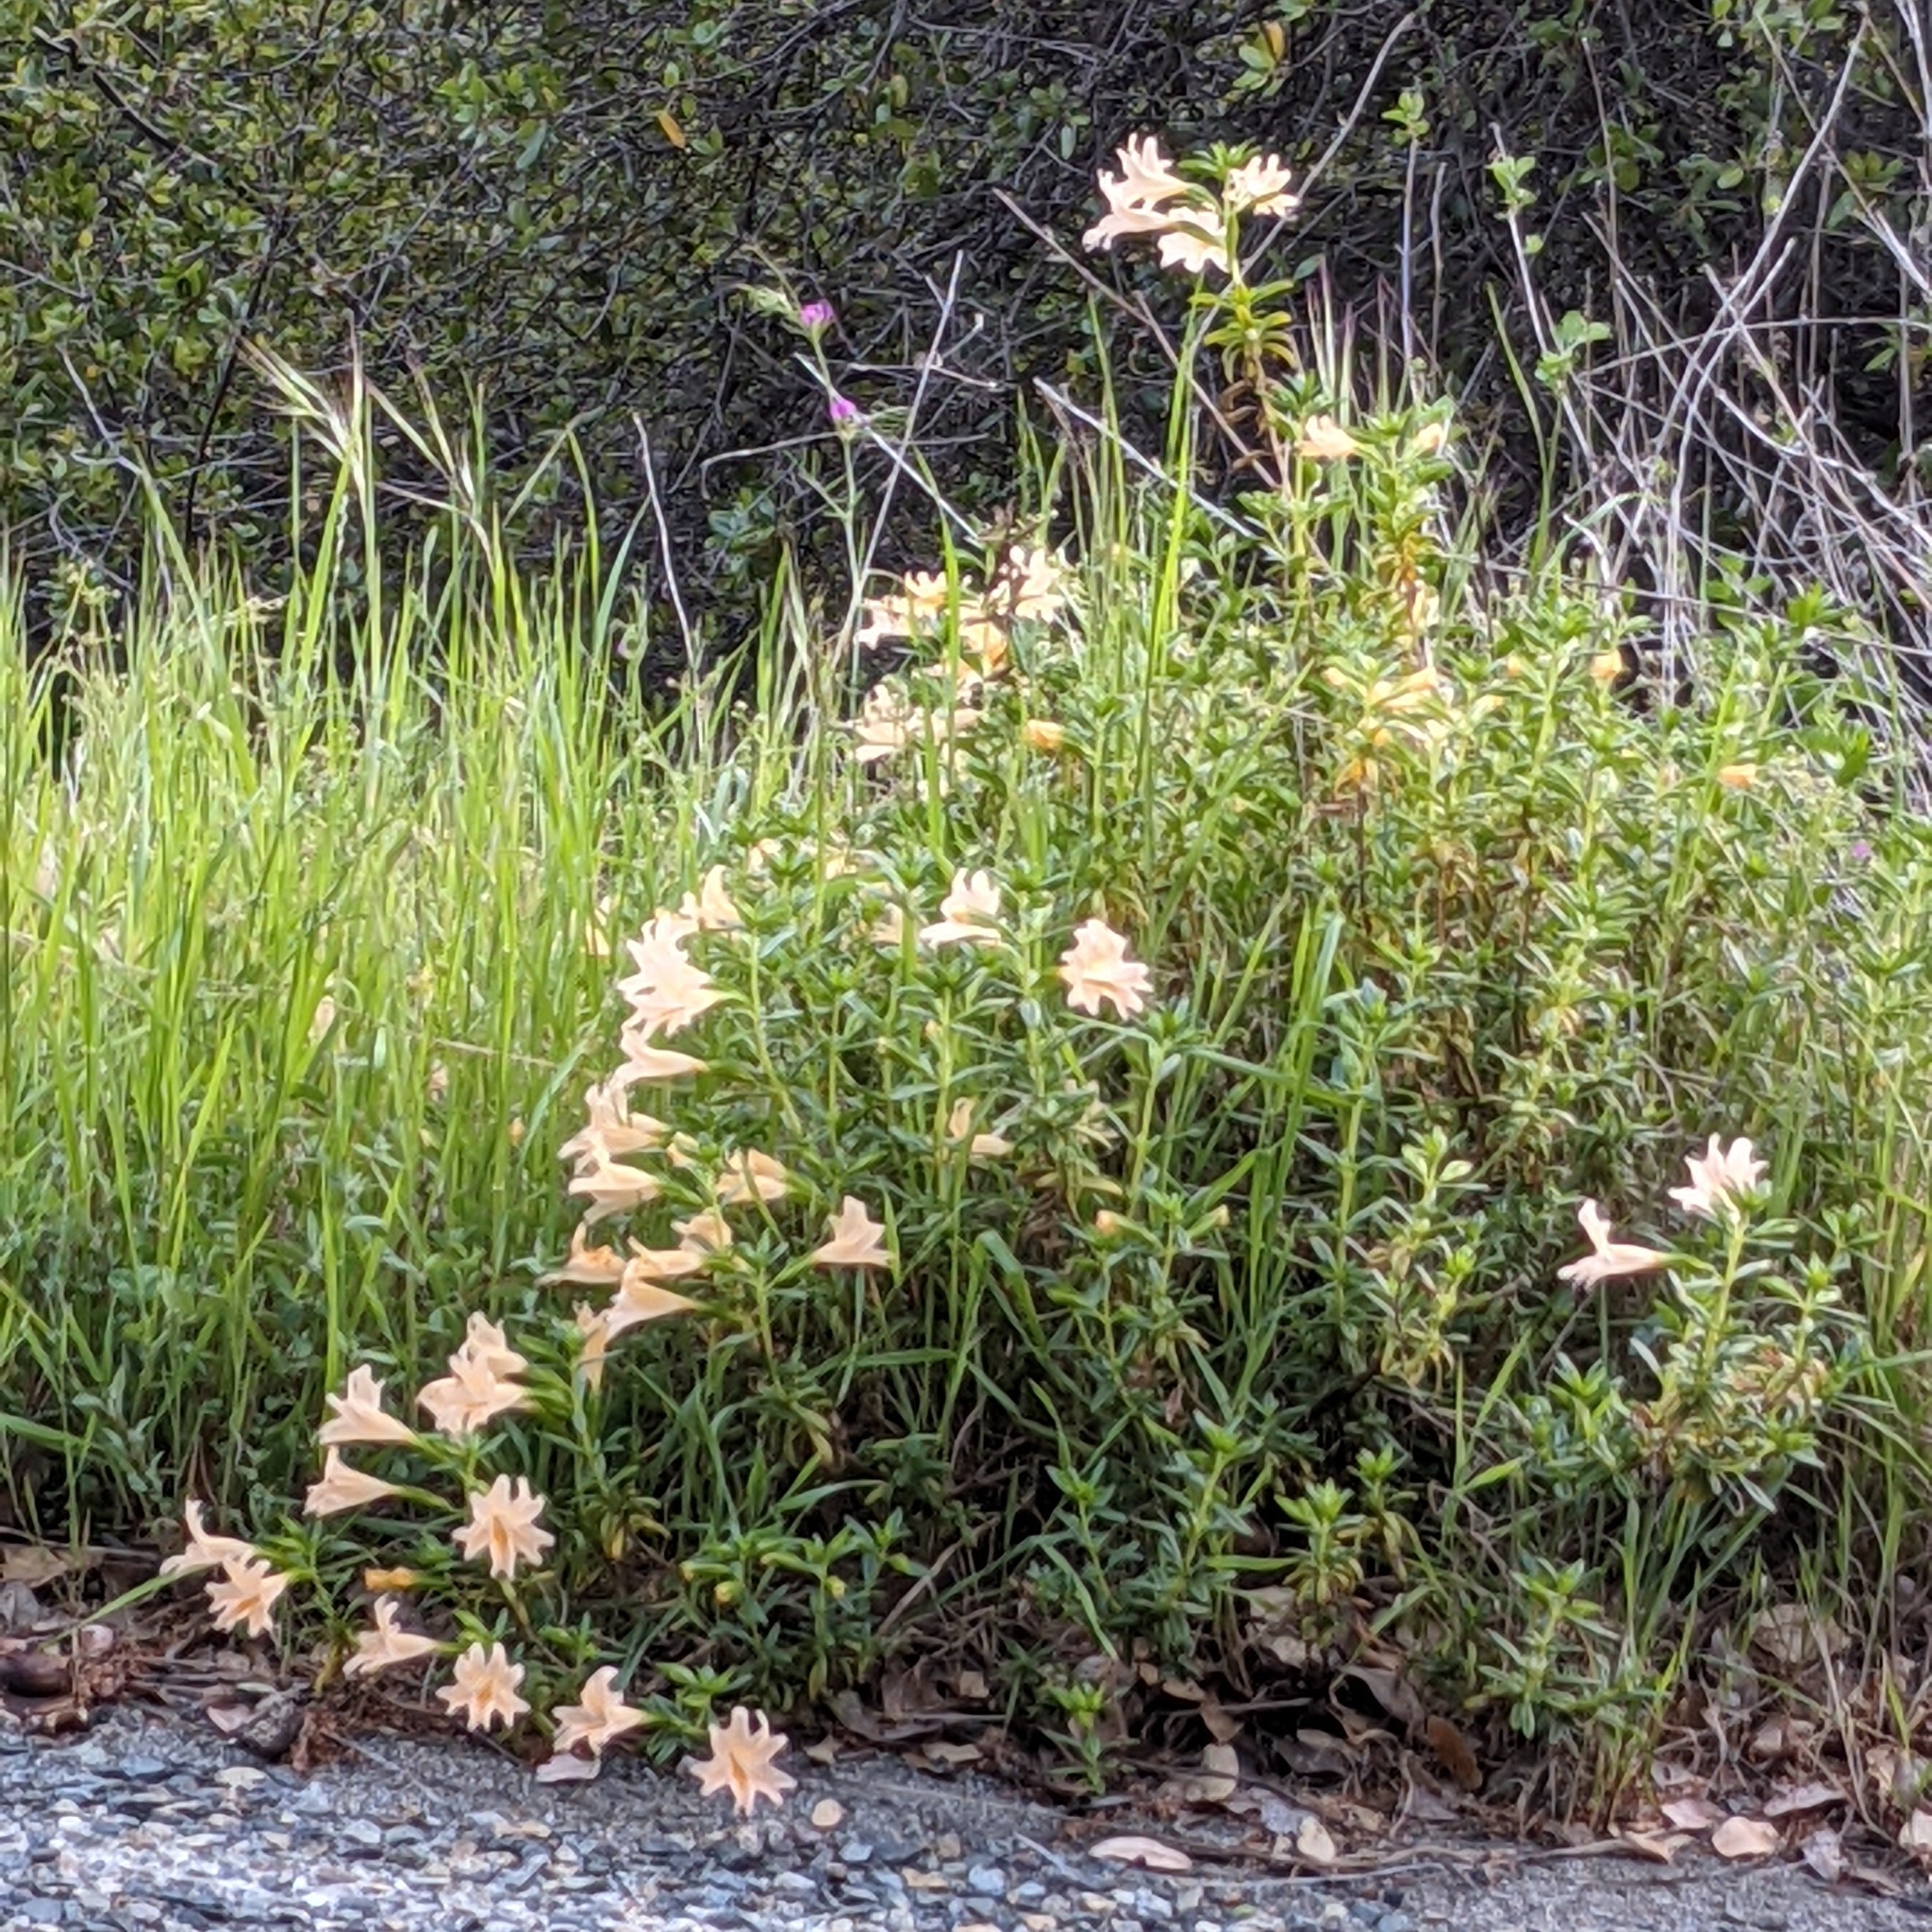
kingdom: Plantae
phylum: Tracheophyta
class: Magnoliopsida
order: Lamiales
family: Phrymaceae
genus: Diplacus
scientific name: Diplacus grandiflorus
